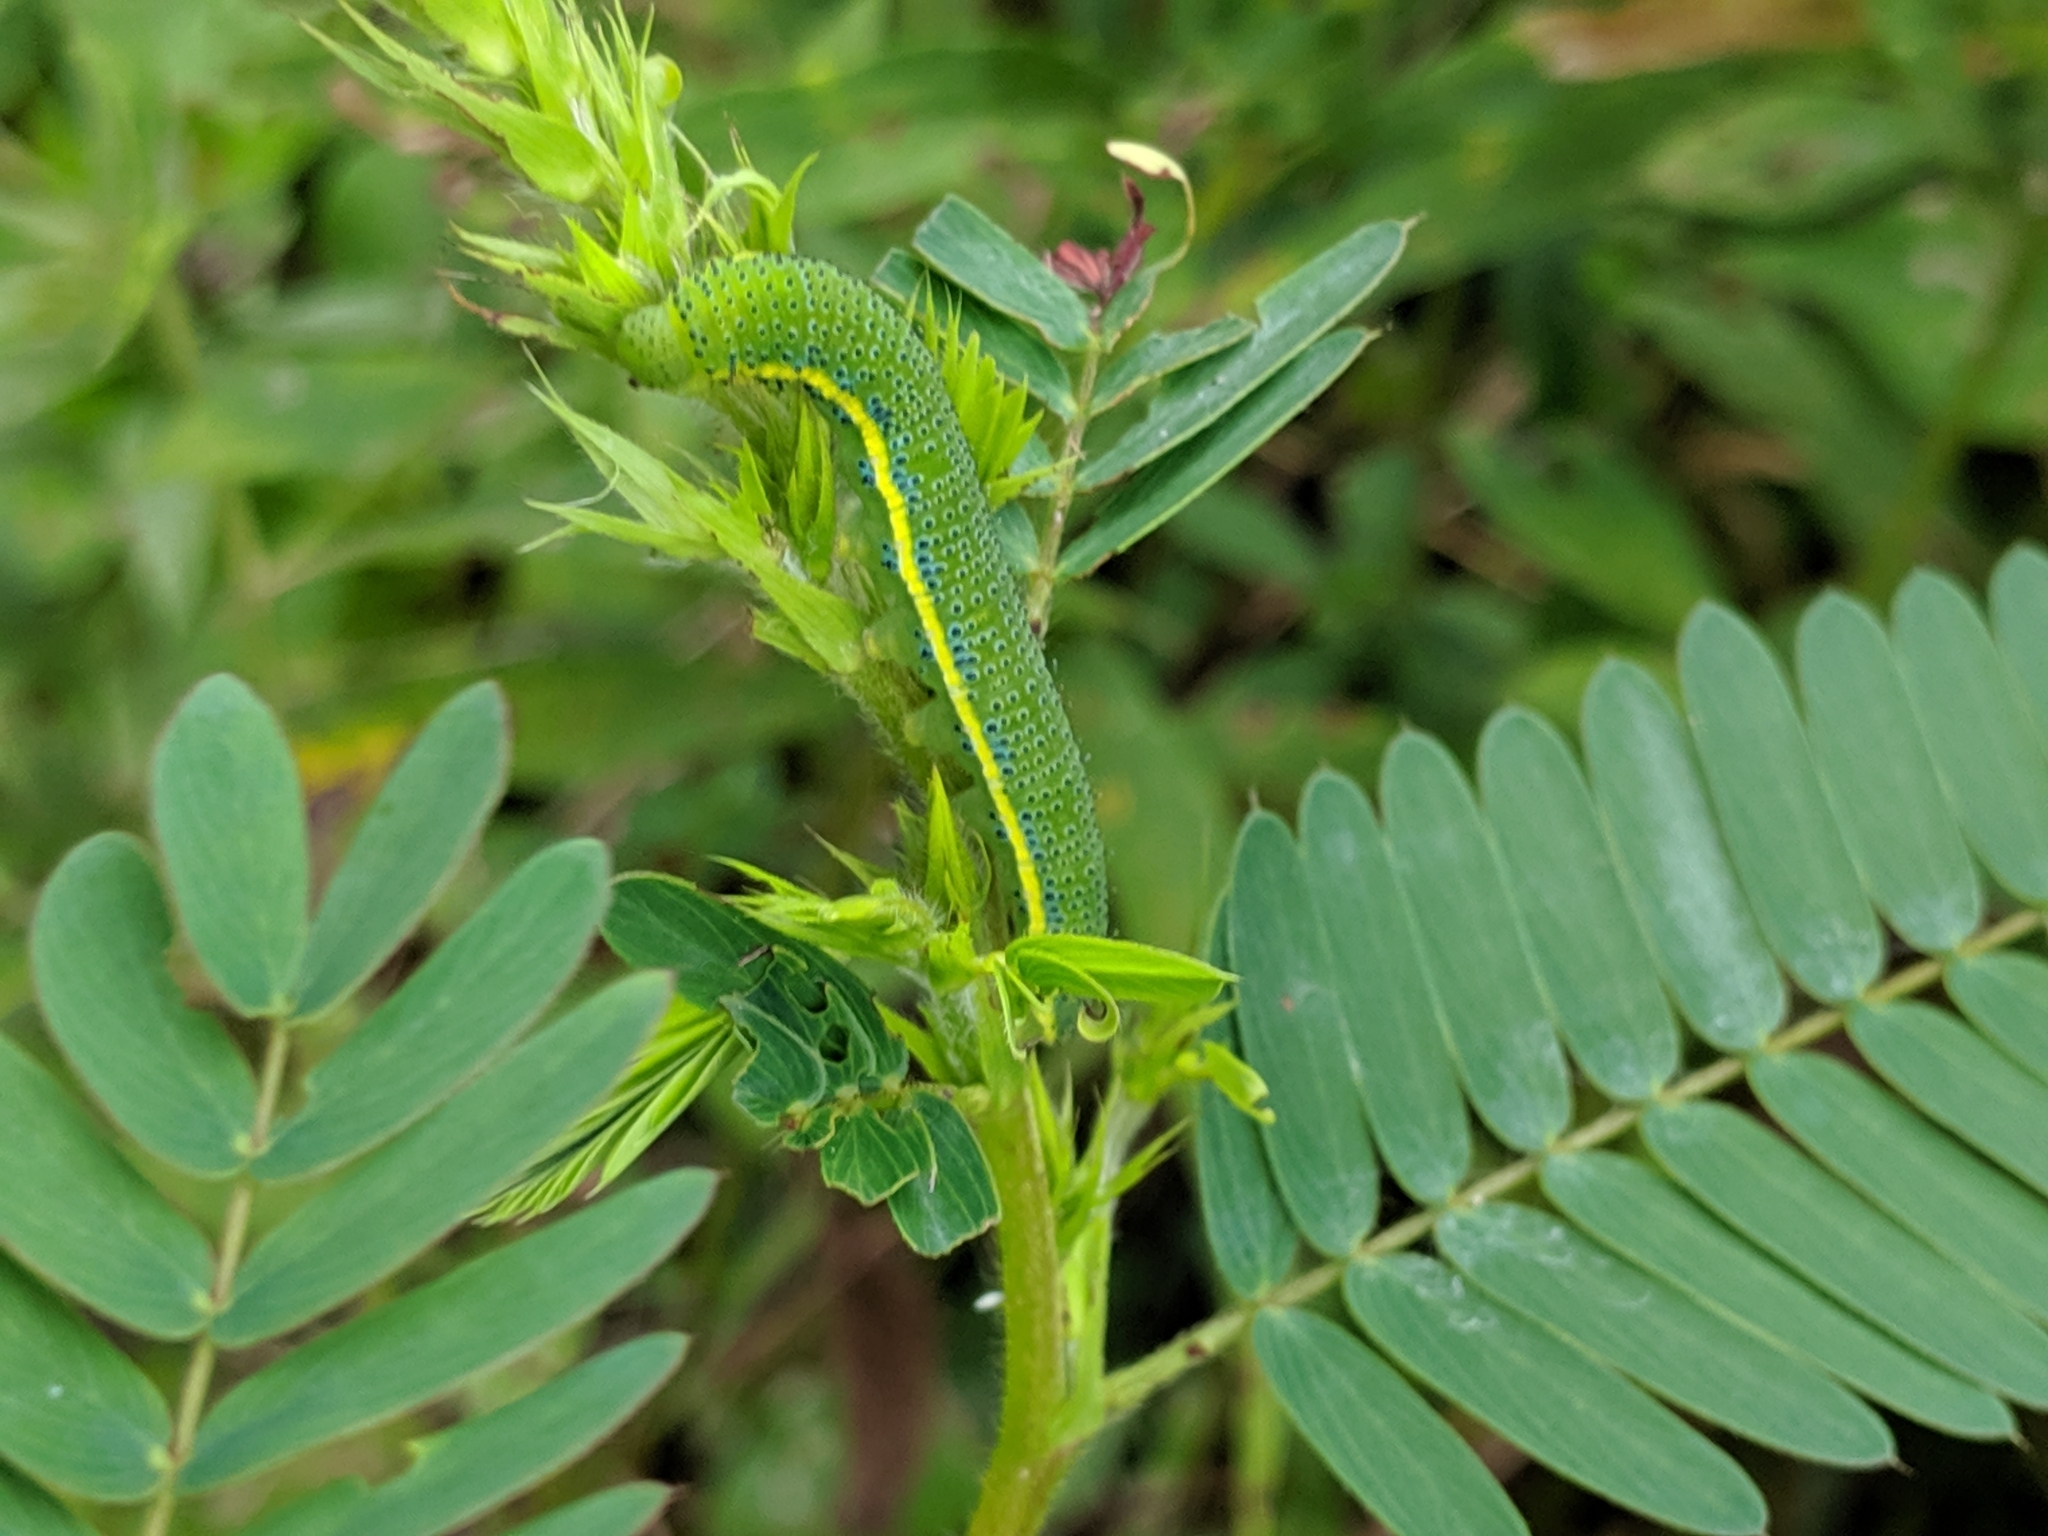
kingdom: Animalia
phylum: Arthropoda
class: Insecta
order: Lepidoptera
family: Pieridae
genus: Phoebis
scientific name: Phoebis sennae
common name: Cloudless sulphur
